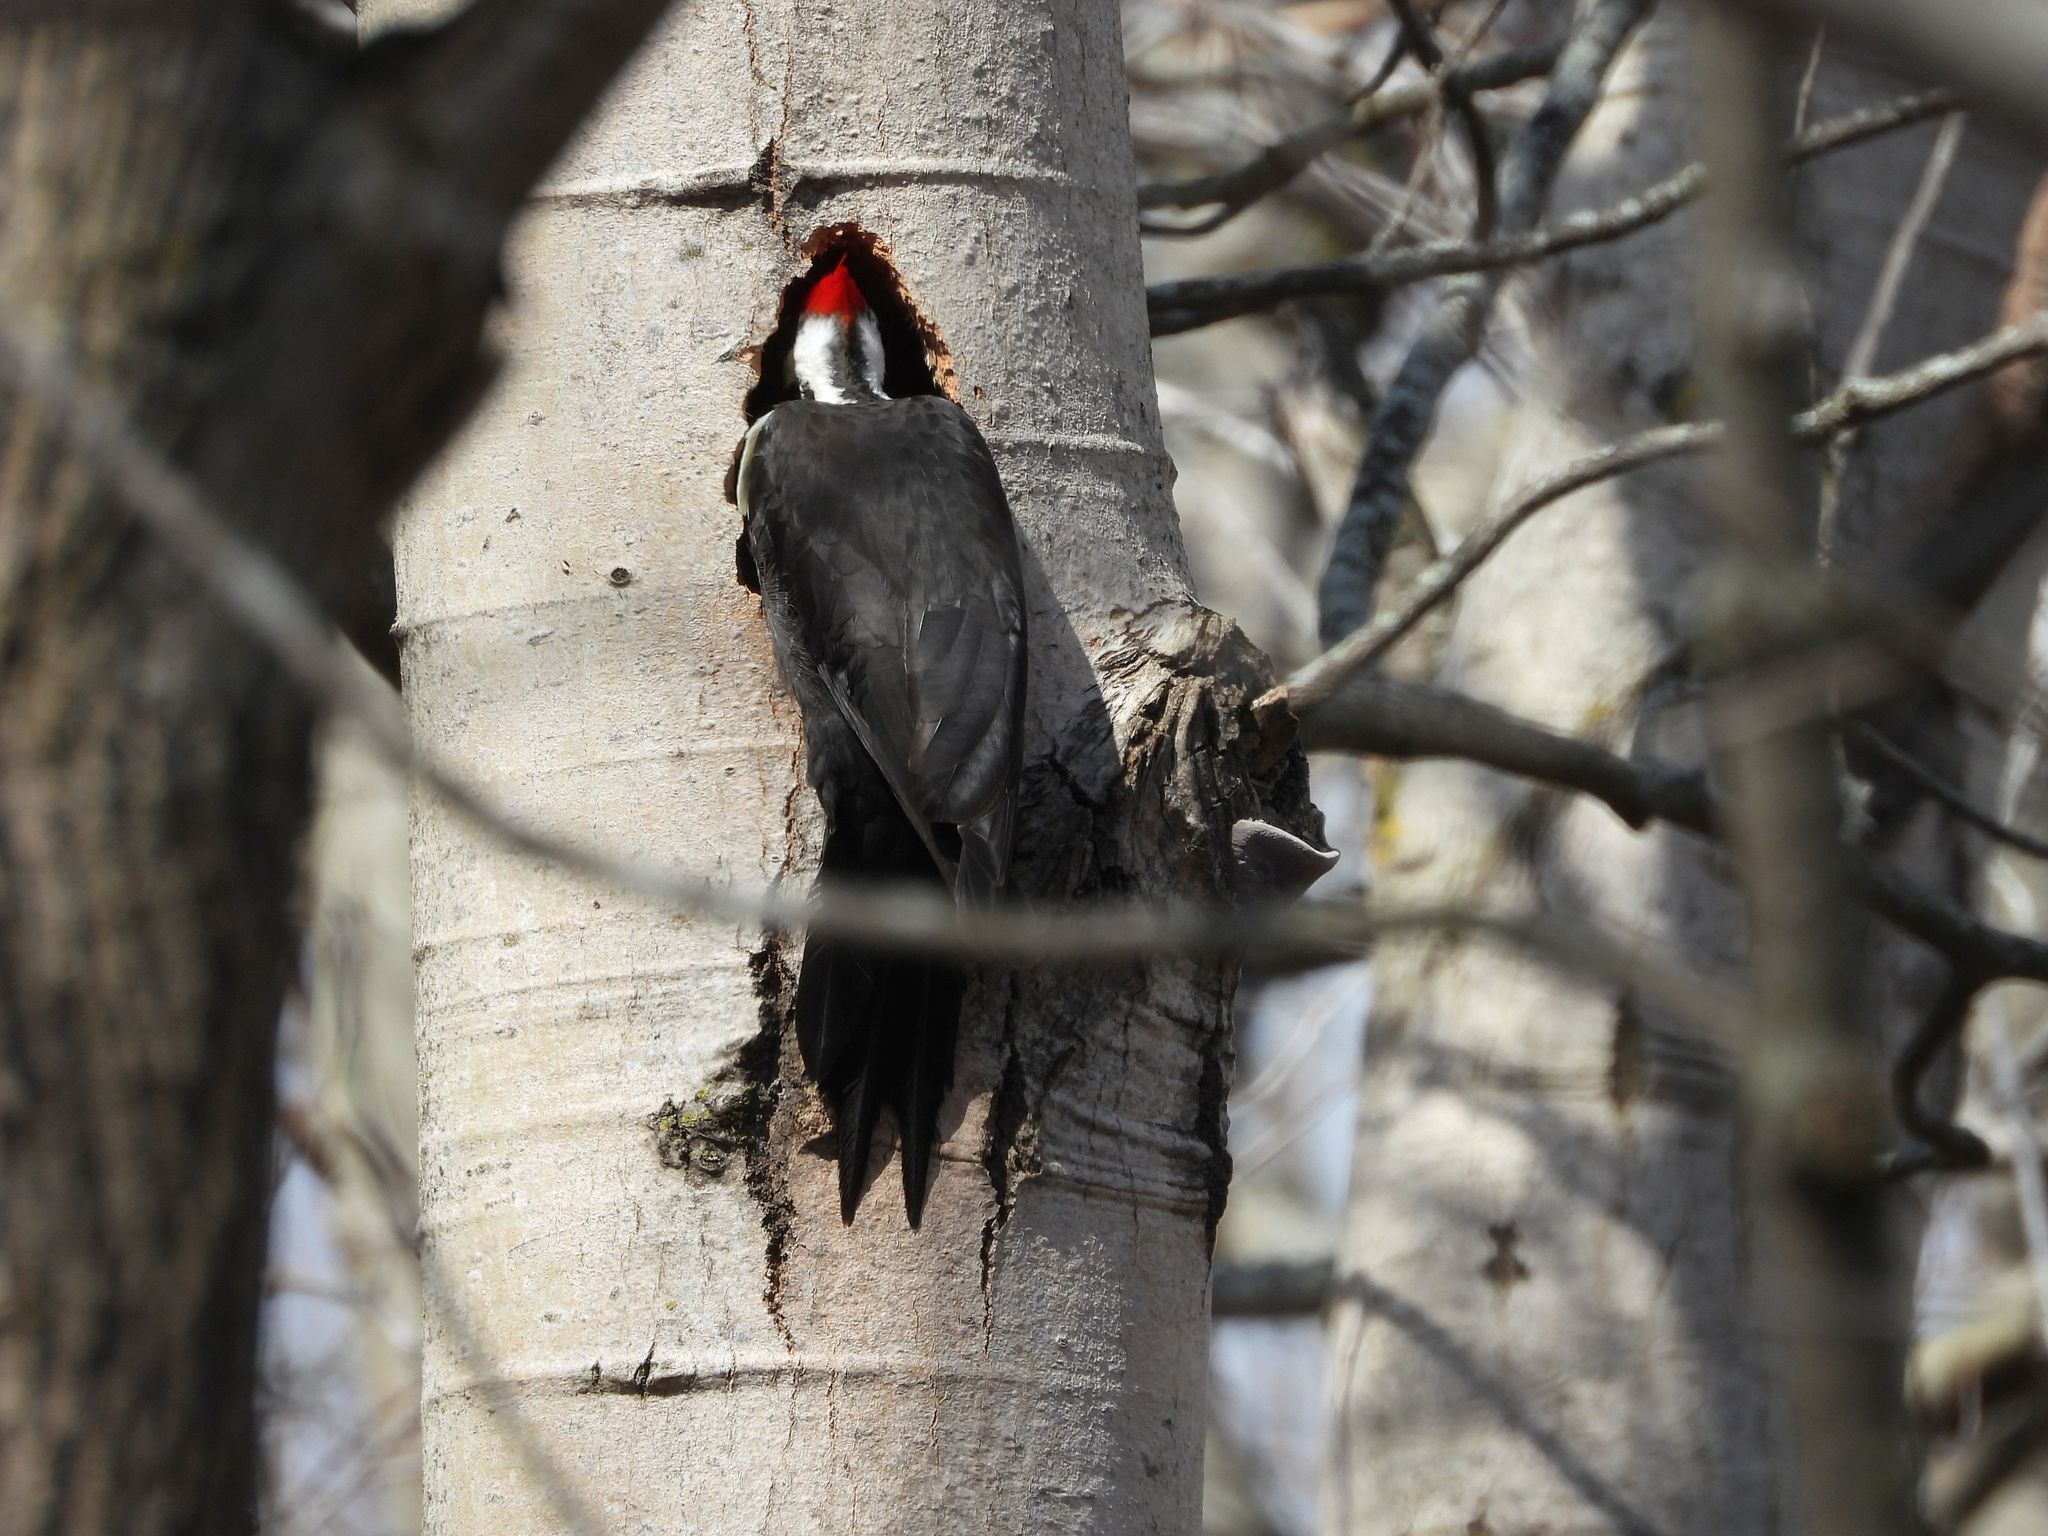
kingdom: Animalia
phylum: Chordata
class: Aves
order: Piciformes
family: Picidae
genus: Dryocopus
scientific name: Dryocopus pileatus
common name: Pileated woodpecker
